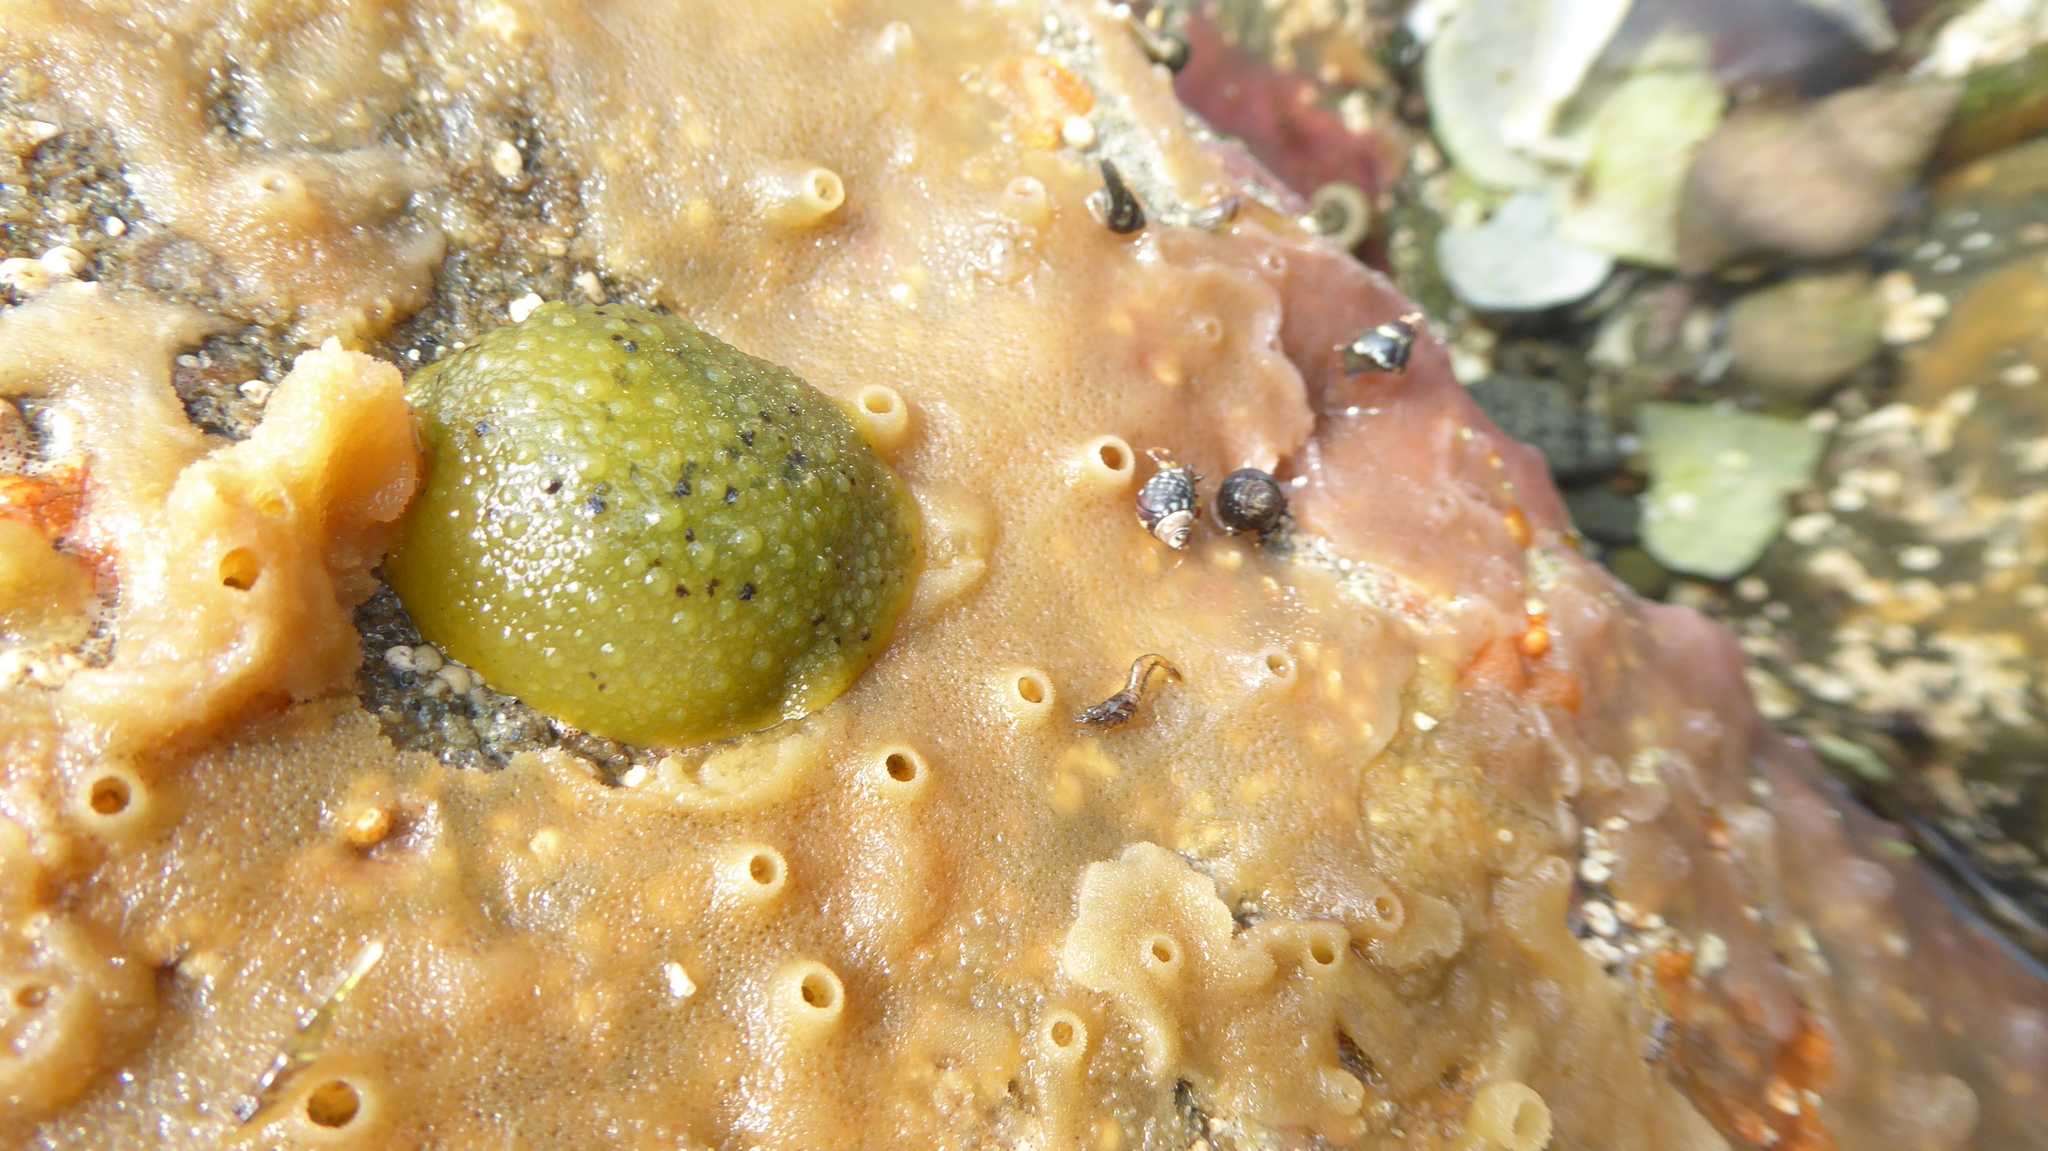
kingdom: Animalia
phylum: Mollusca
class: Gastropoda
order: Nudibranchia
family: Dorididae
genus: Doris
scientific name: Doris montereyensis
